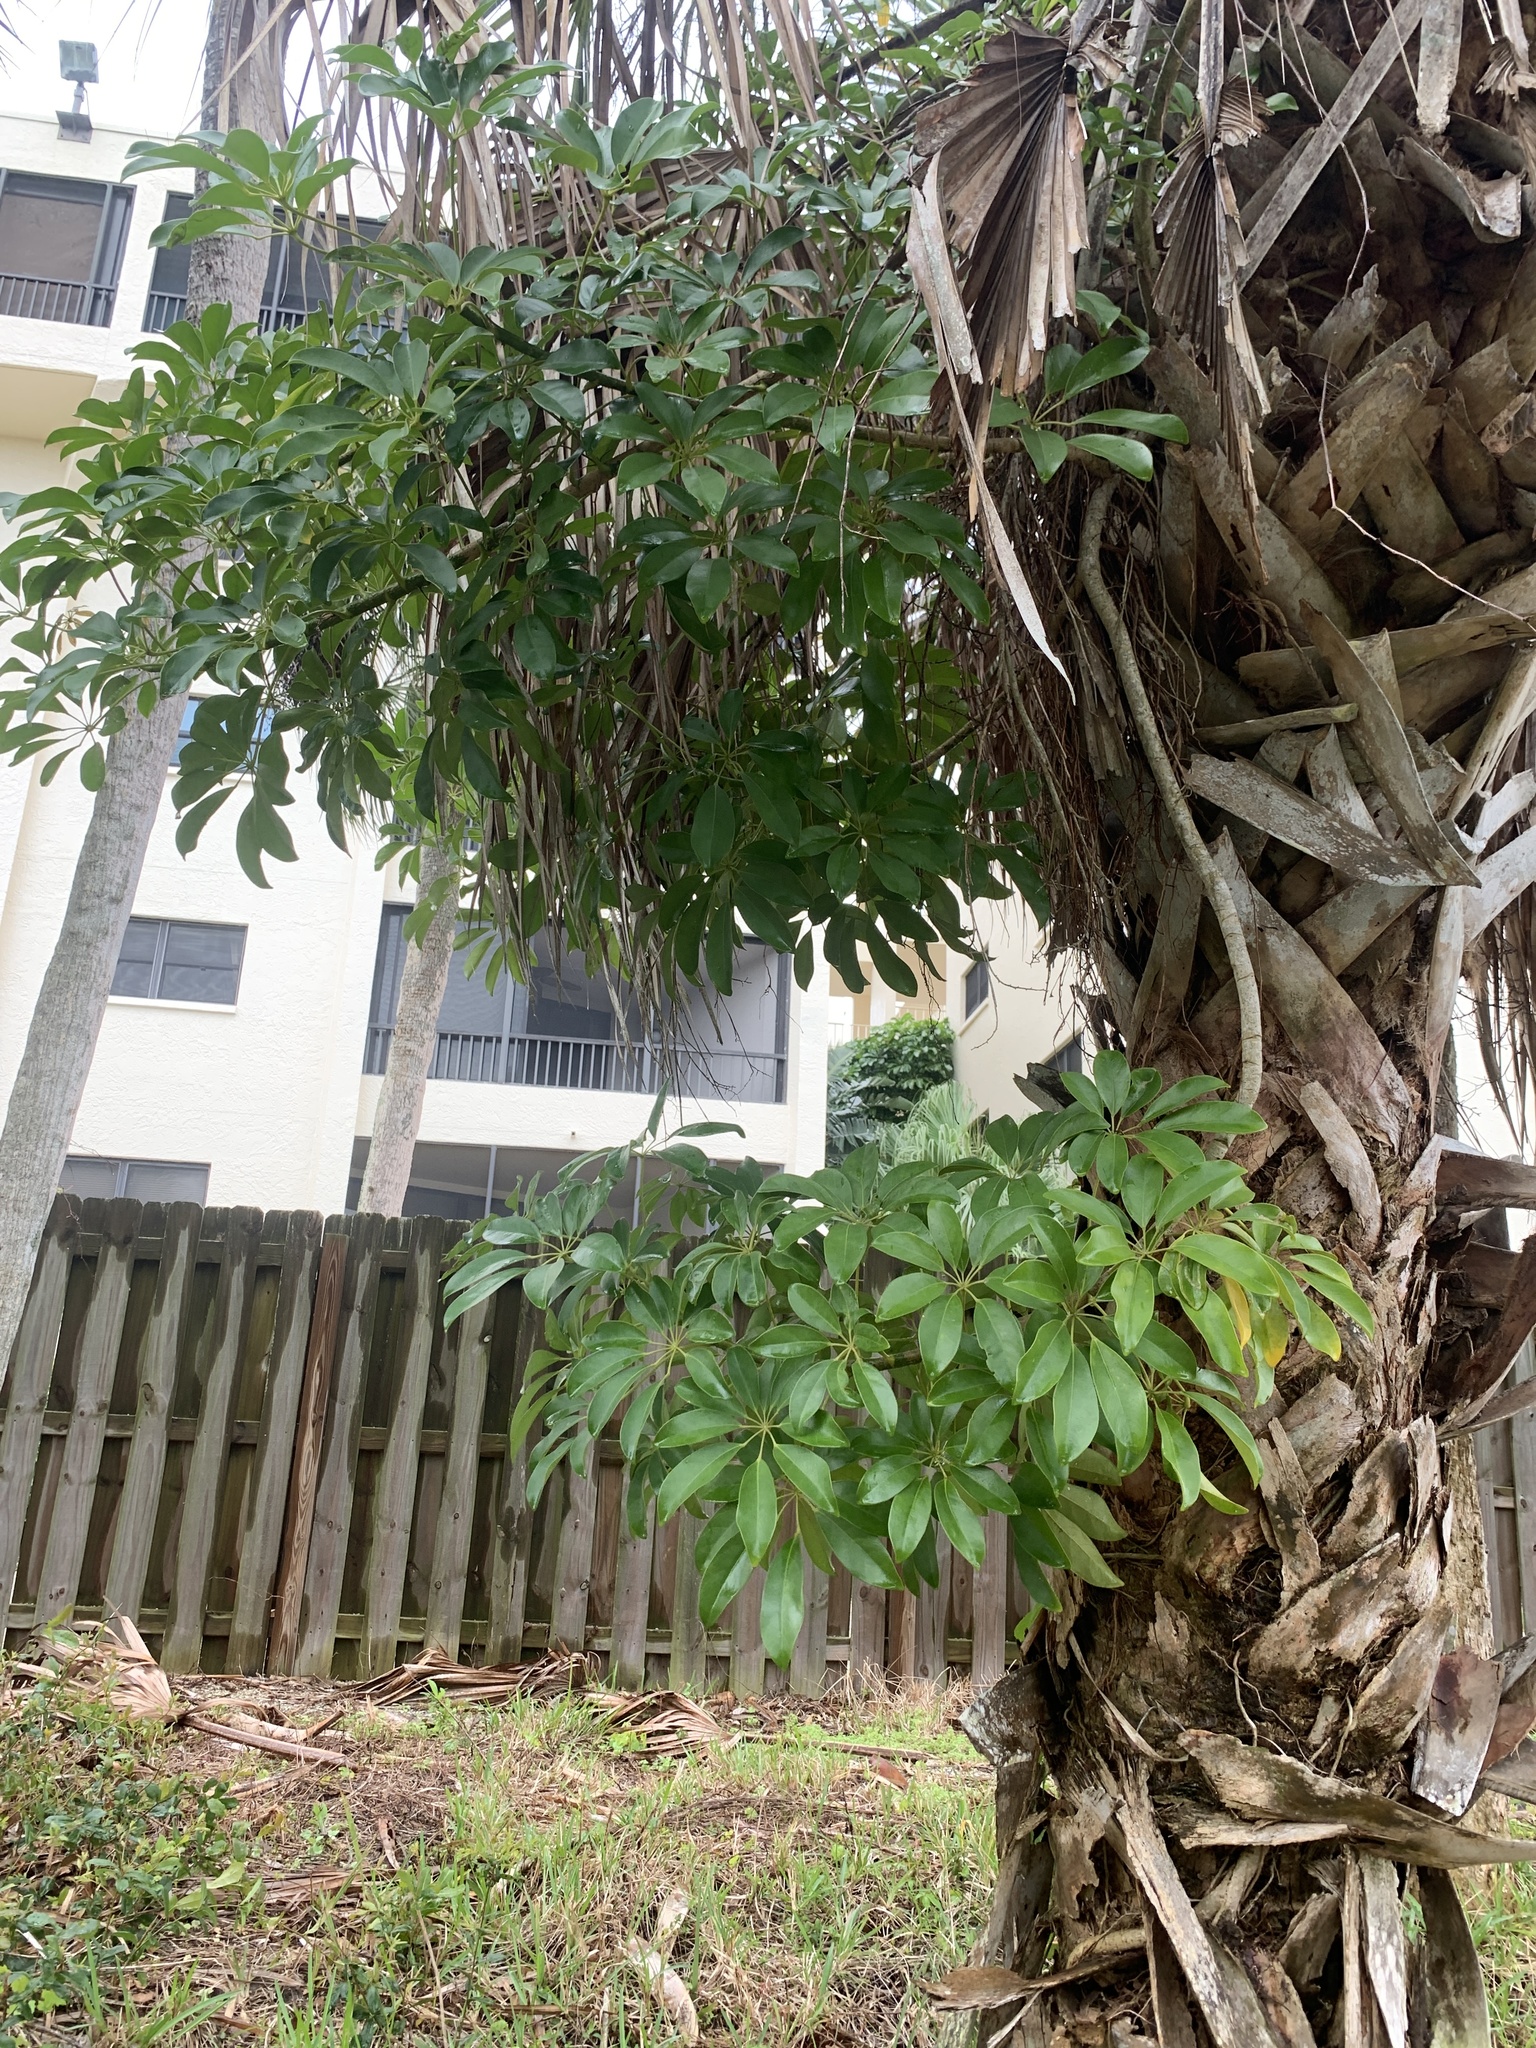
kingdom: Plantae
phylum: Tracheophyta
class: Magnoliopsida
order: Apiales
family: Araliaceae
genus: Heptapleurum
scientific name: Heptapleurum arboricola
